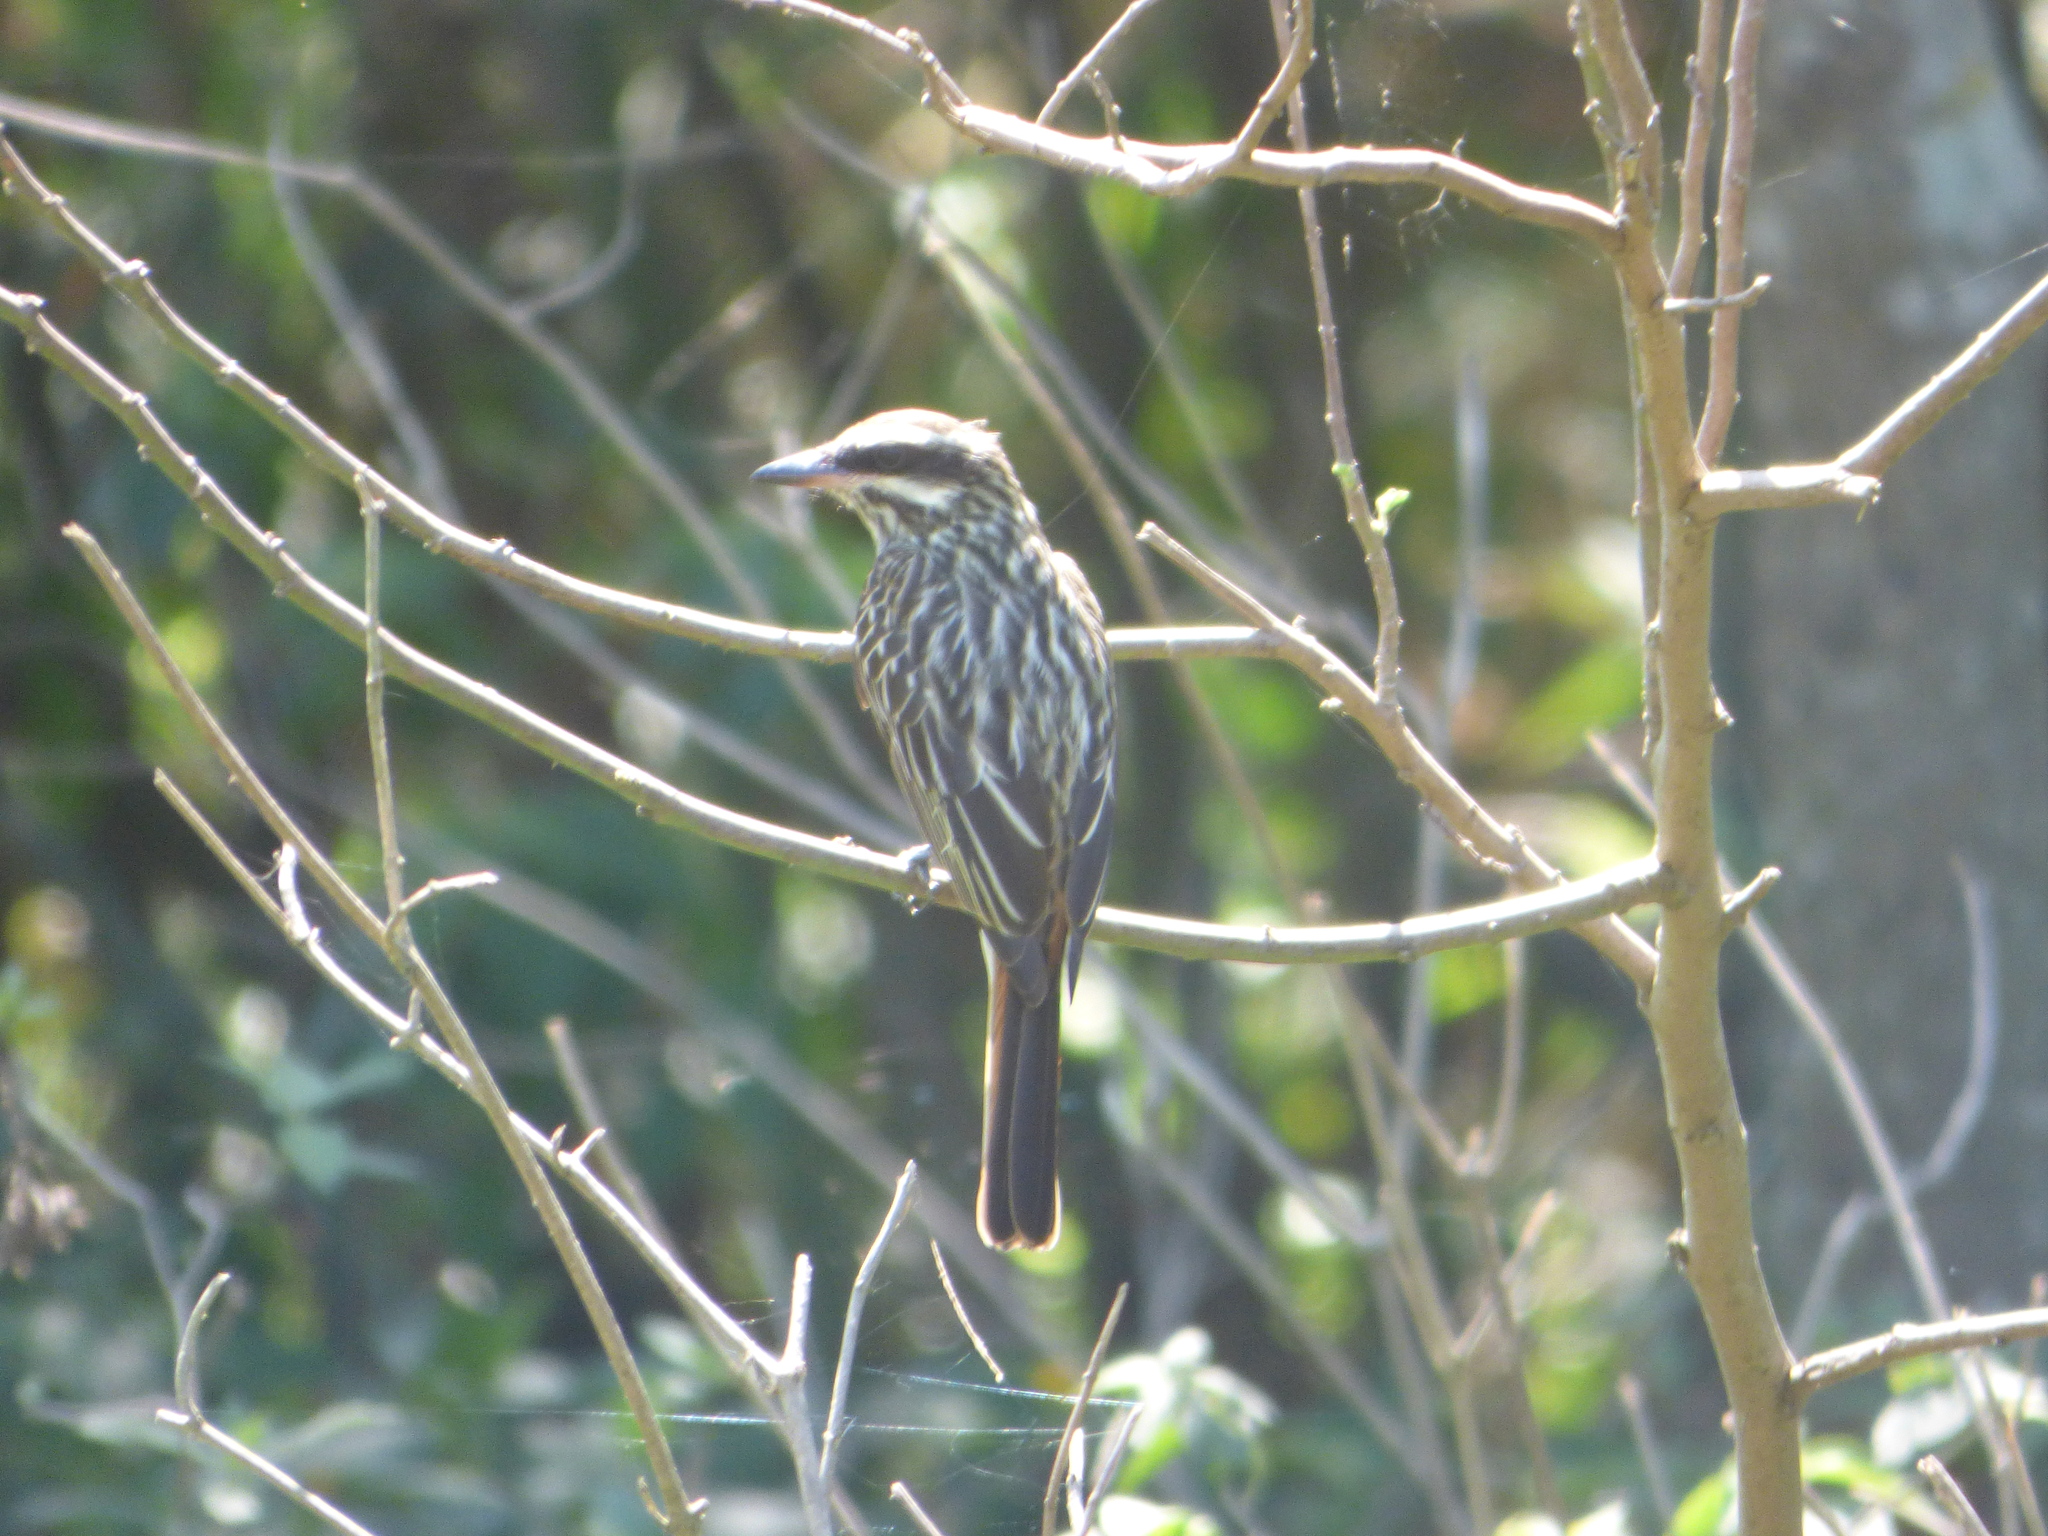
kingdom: Animalia
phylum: Chordata
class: Aves
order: Passeriformes
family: Tyrannidae
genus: Myiodynastes
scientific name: Myiodynastes maculatus
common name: Streaked flycatcher
